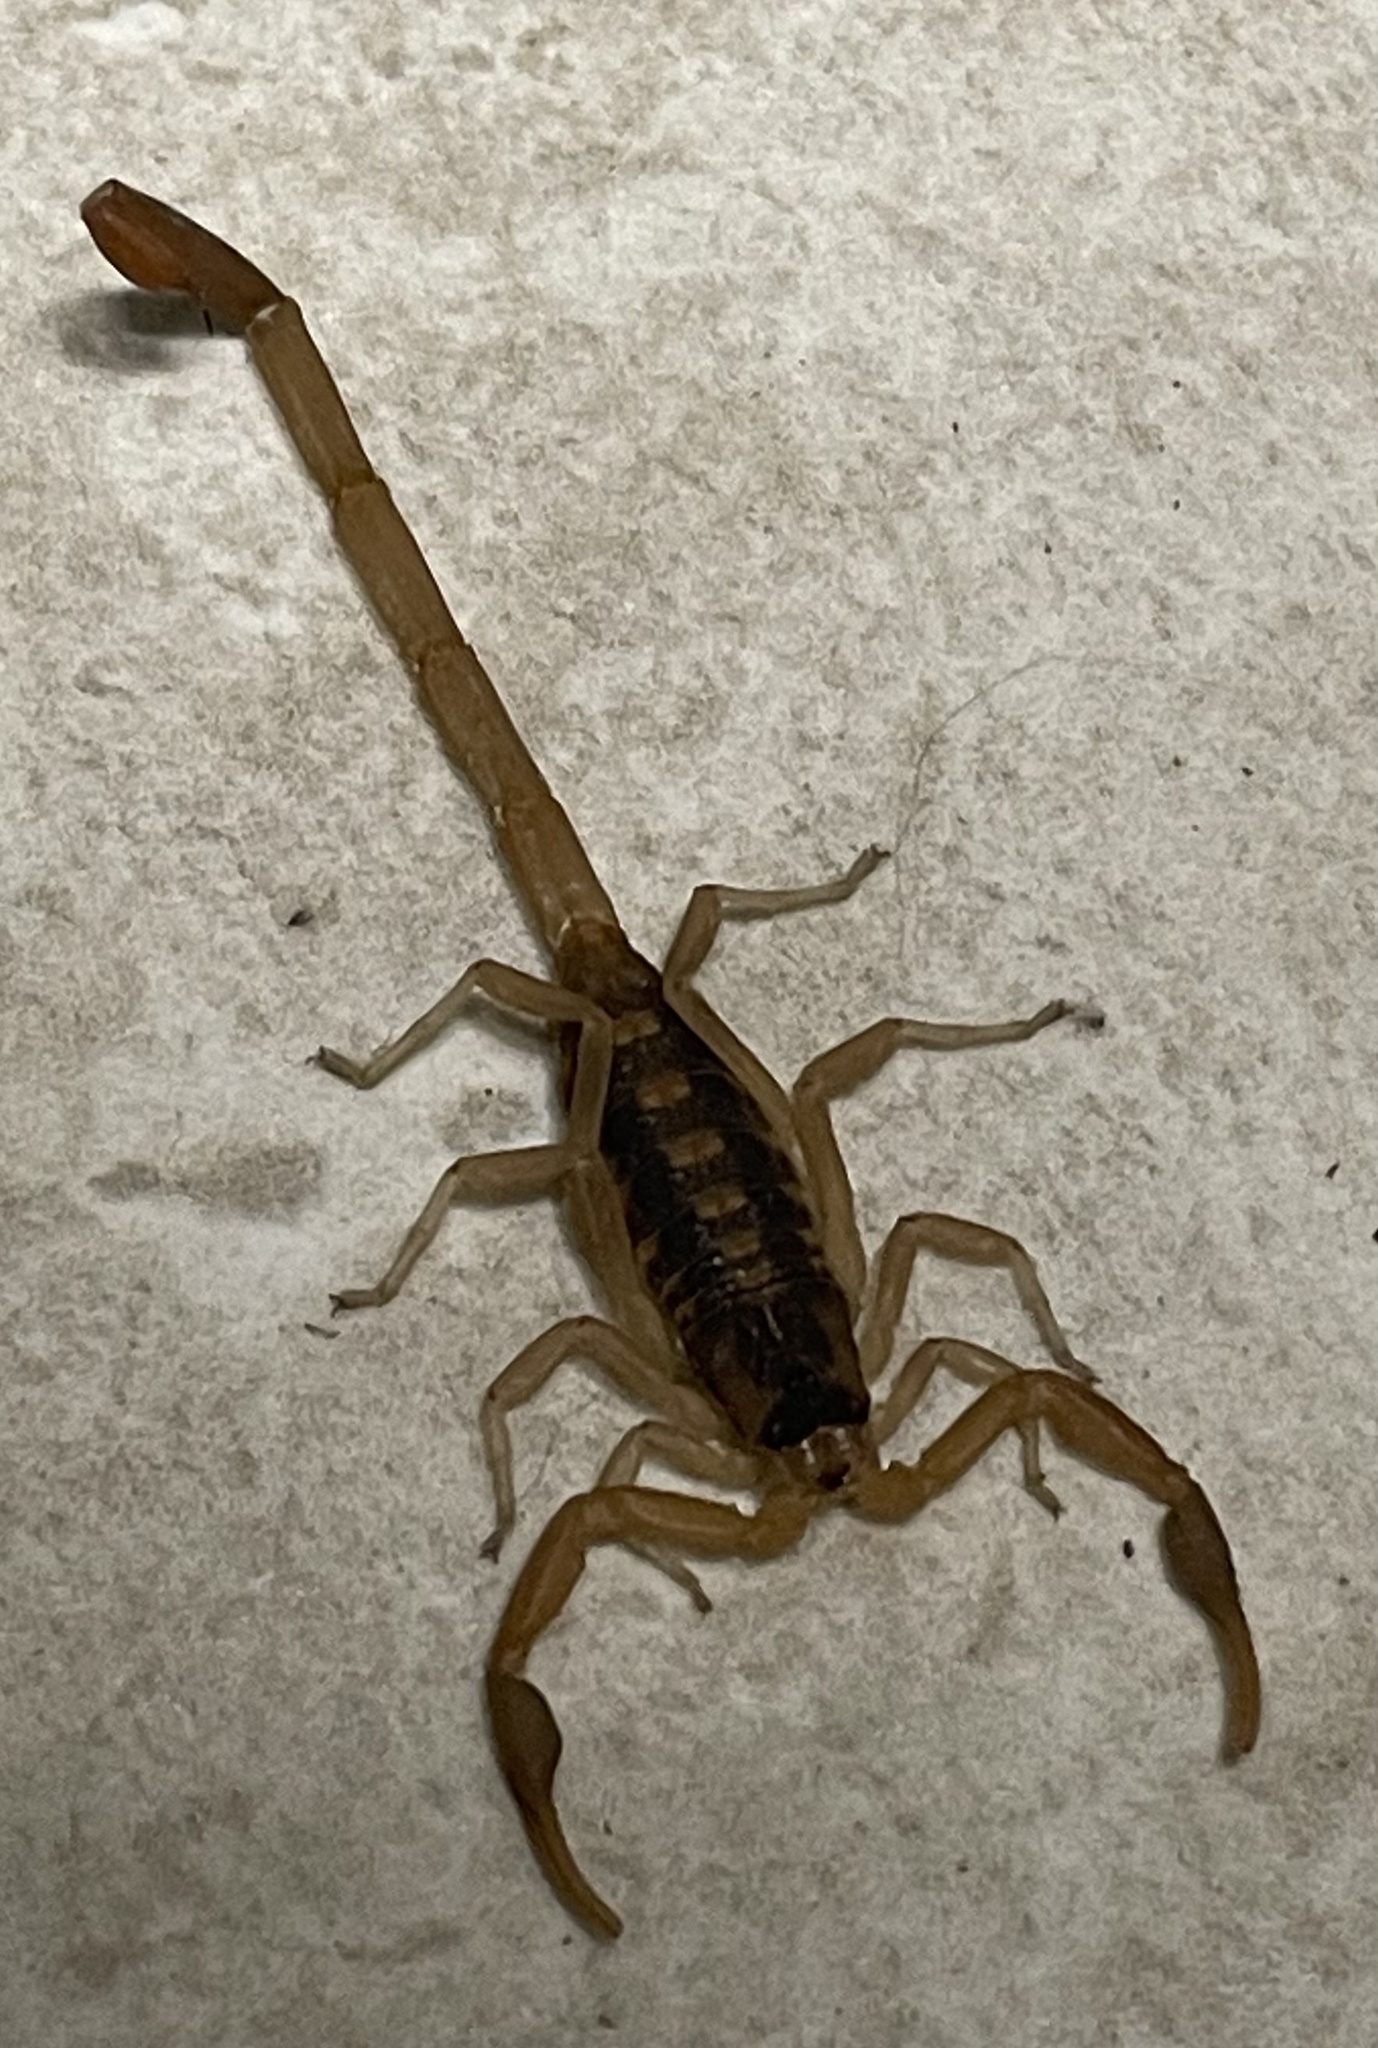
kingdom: Animalia
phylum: Arthropoda
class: Arachnida
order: Scorpiones
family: Buthidae
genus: Centruroides
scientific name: Centruroides vittatus
